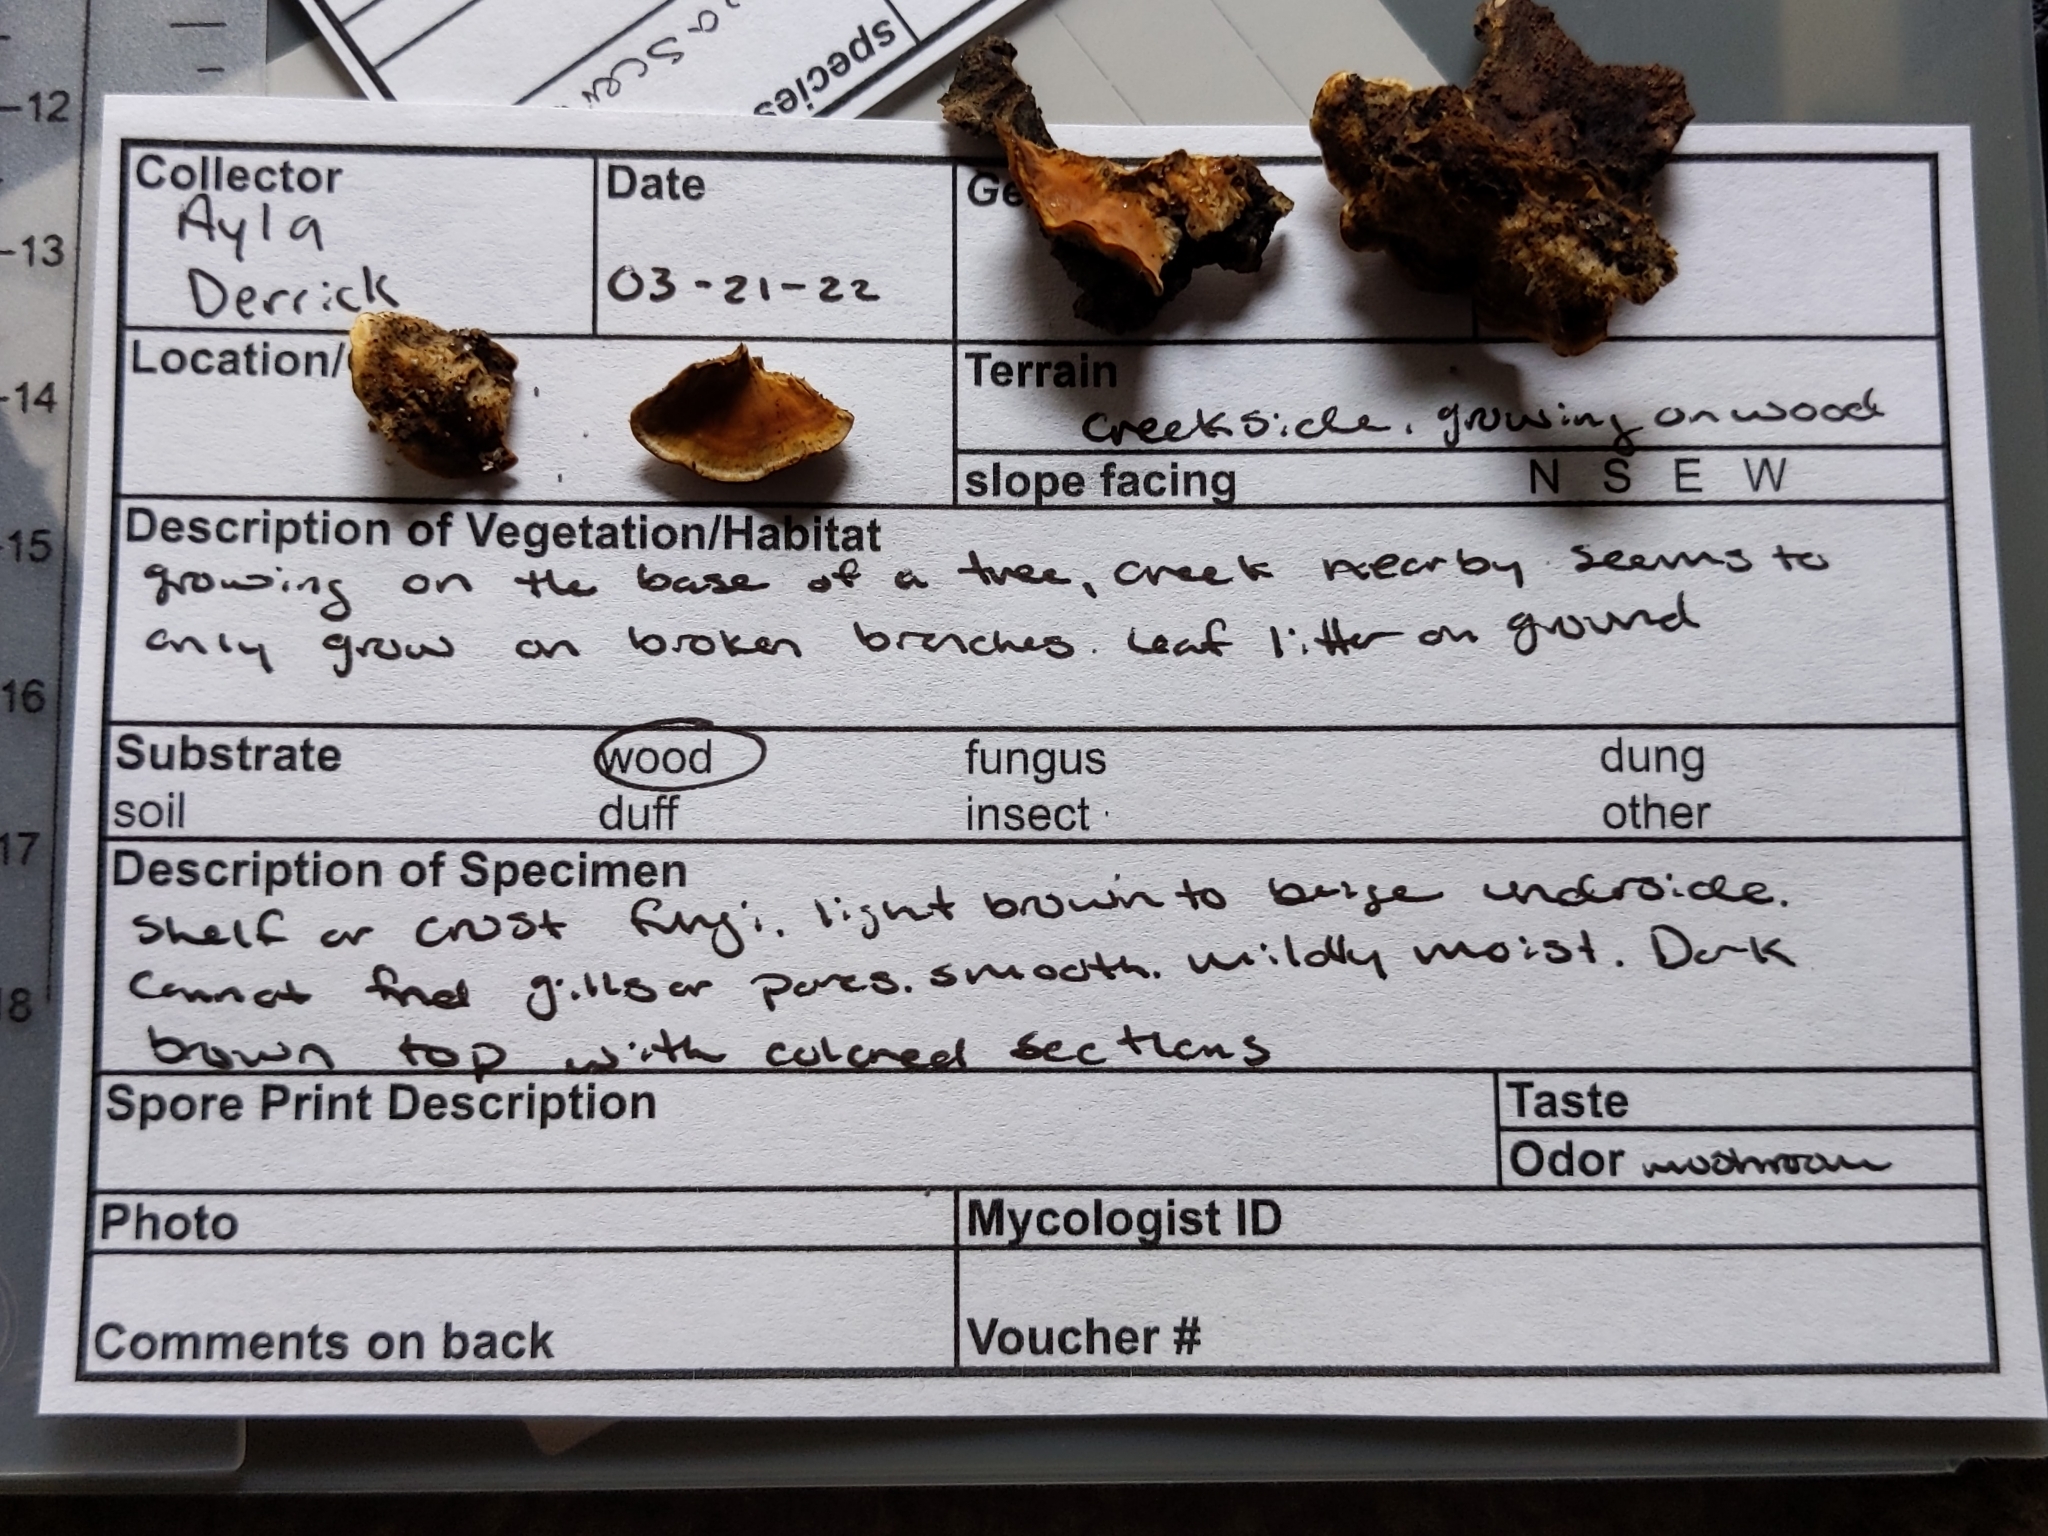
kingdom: Fungi
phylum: Basidiomycota
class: Agaricomycetes
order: Russulales
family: Stereaceae
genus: Stereum
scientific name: Stereum hirsutum
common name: Hairy curtain crust
